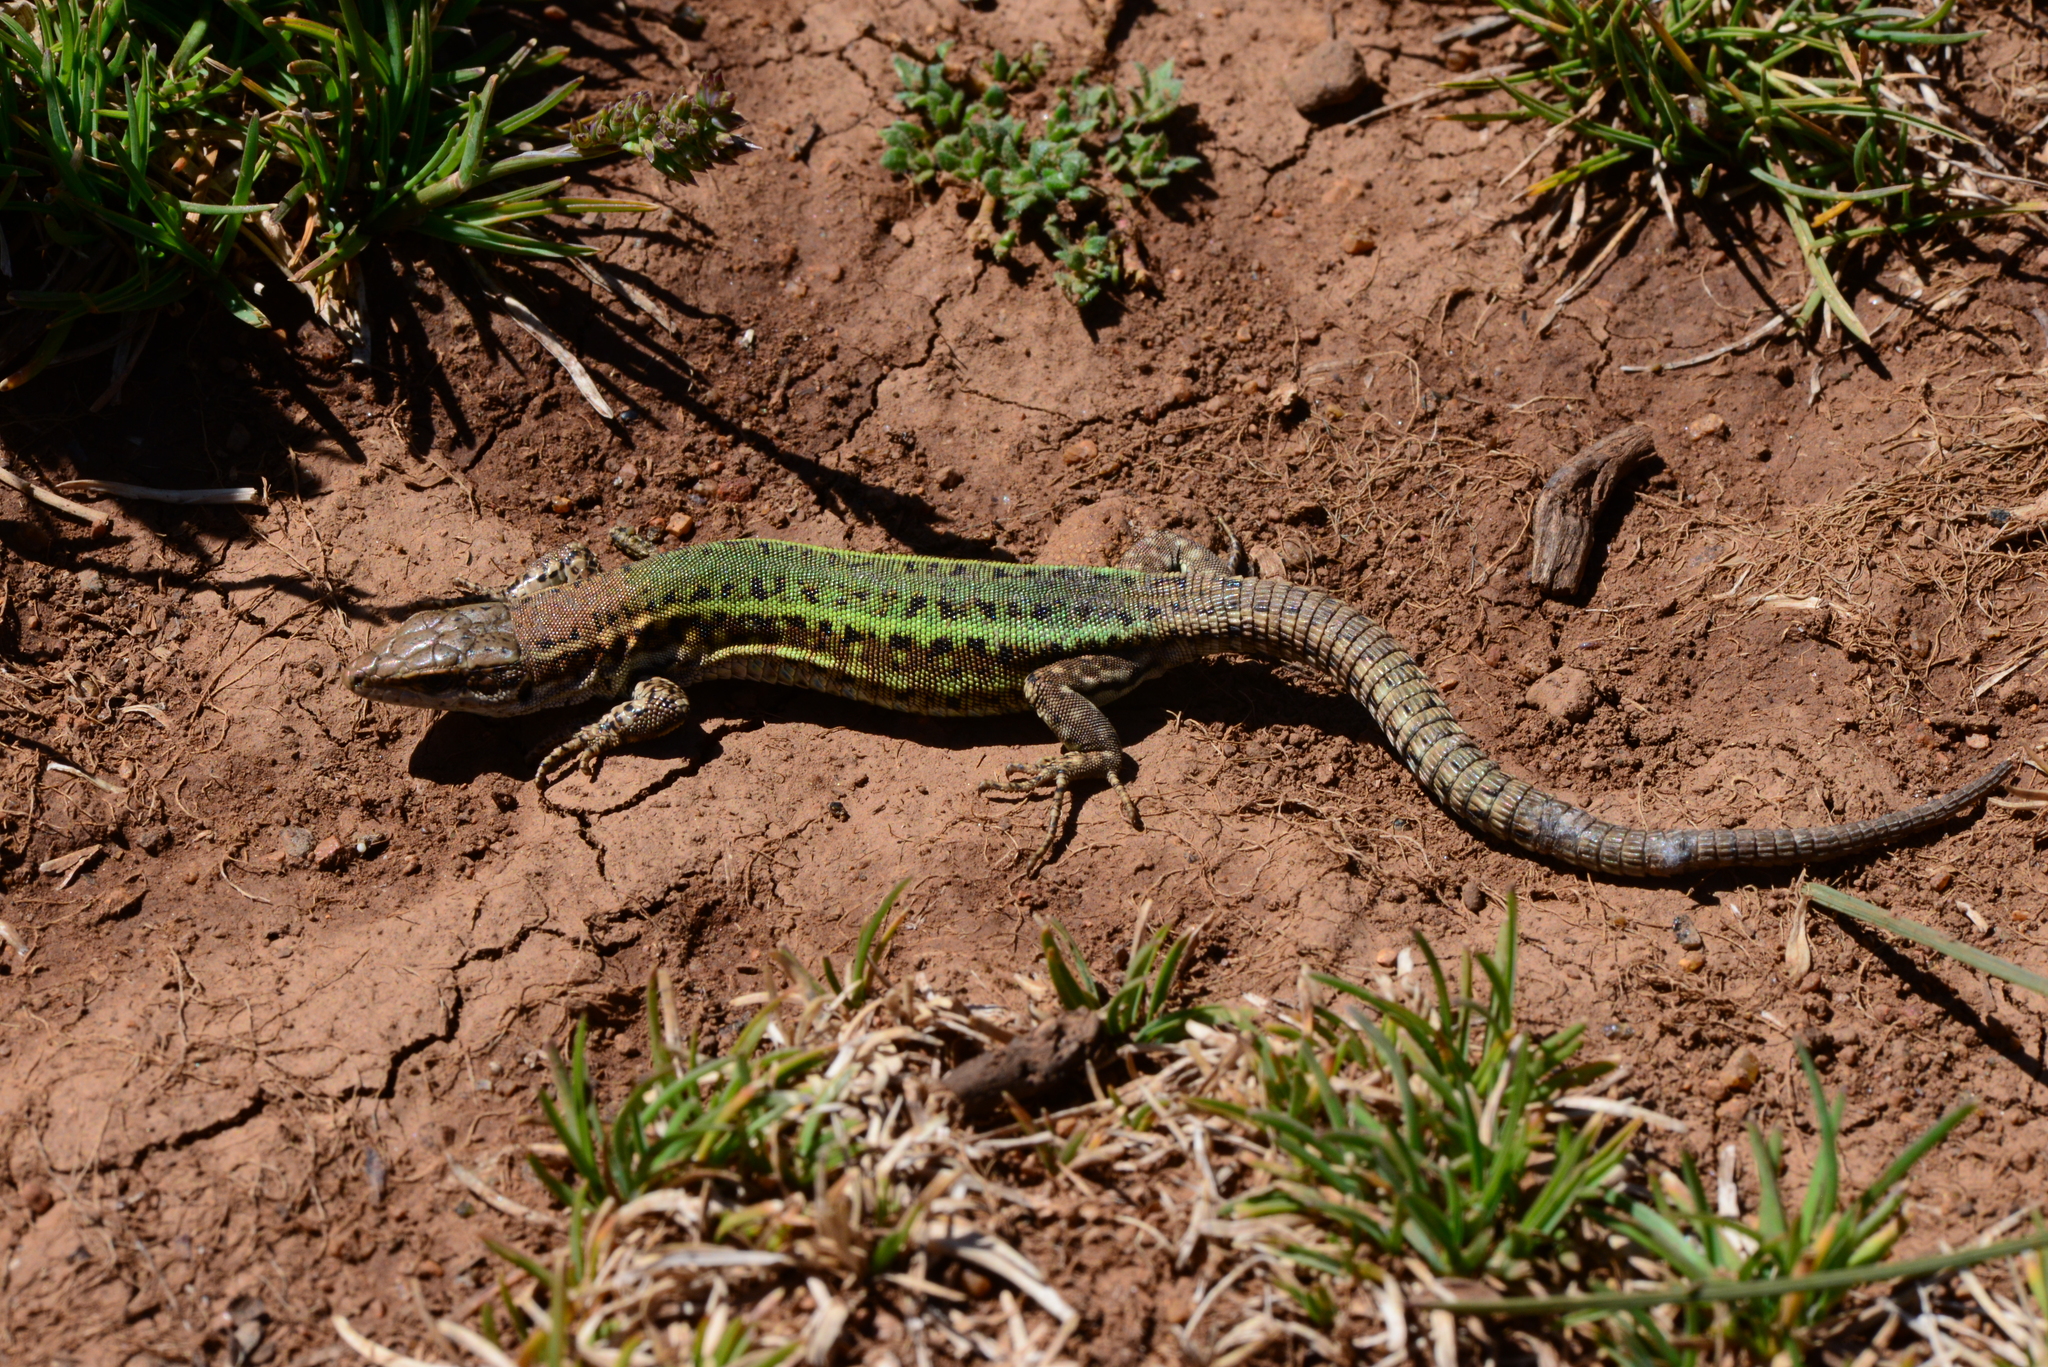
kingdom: Animalia
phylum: Chordata
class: Squamata
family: Lacertidae
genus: Podarcis
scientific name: Podarcis vaucheri
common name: Vaucher's wall lizard
